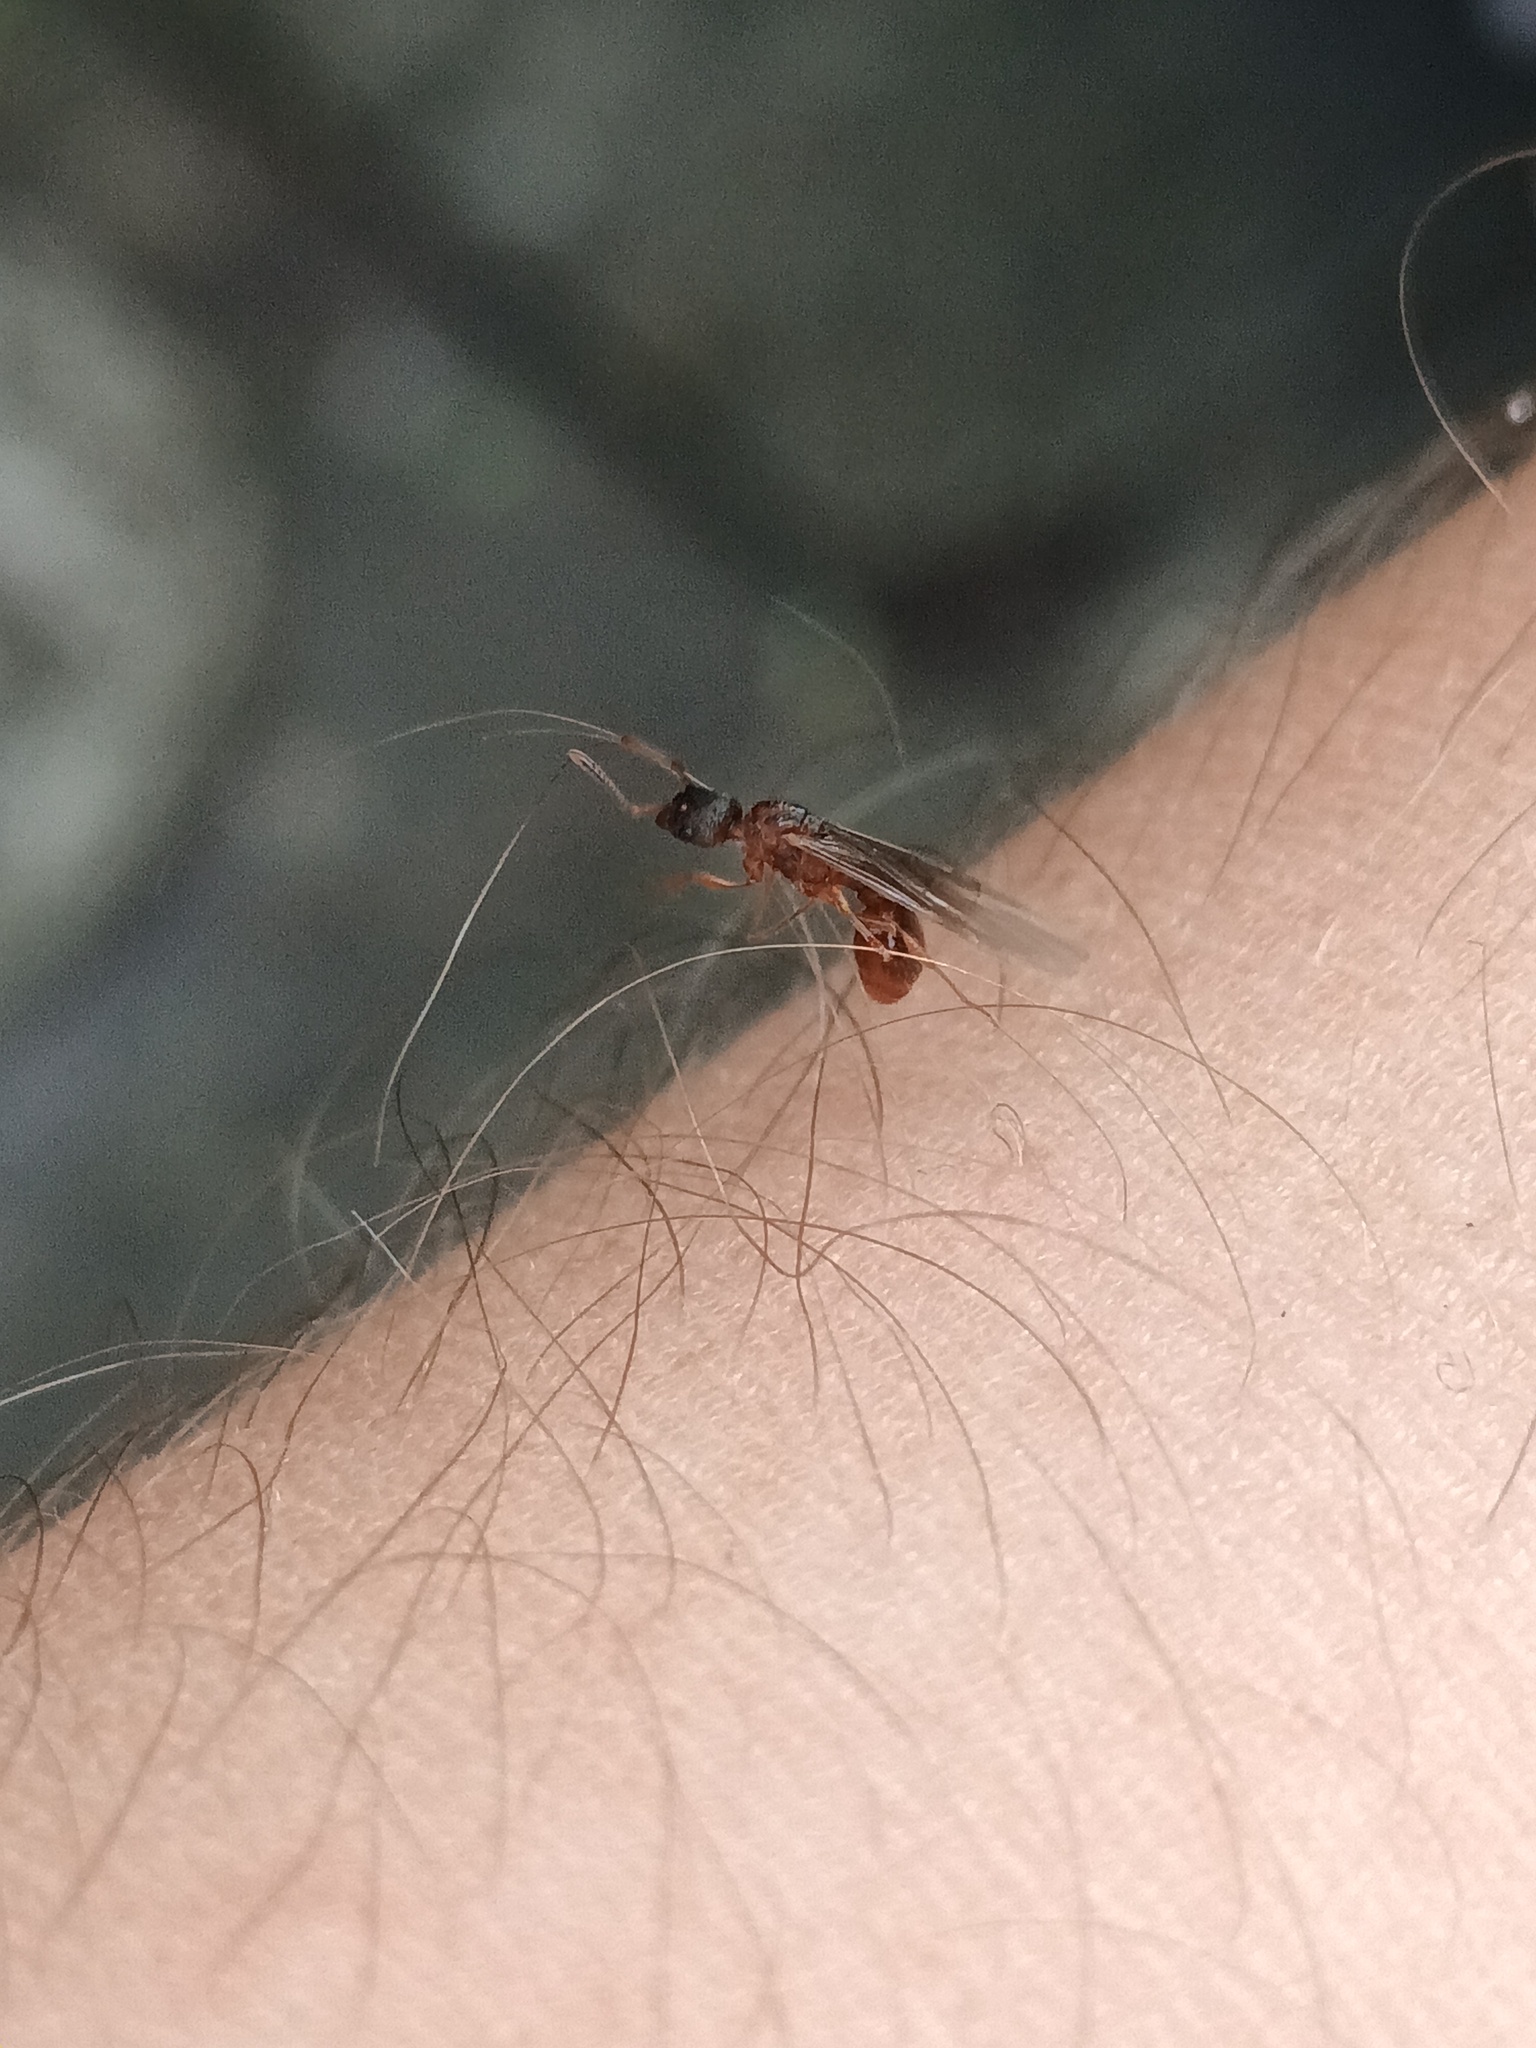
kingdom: Animalia
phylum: Arthropoda
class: Insecta
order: Hymenoptera
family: Formicidae
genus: Myrmica
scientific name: Myrmica rubra
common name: European fire ant
